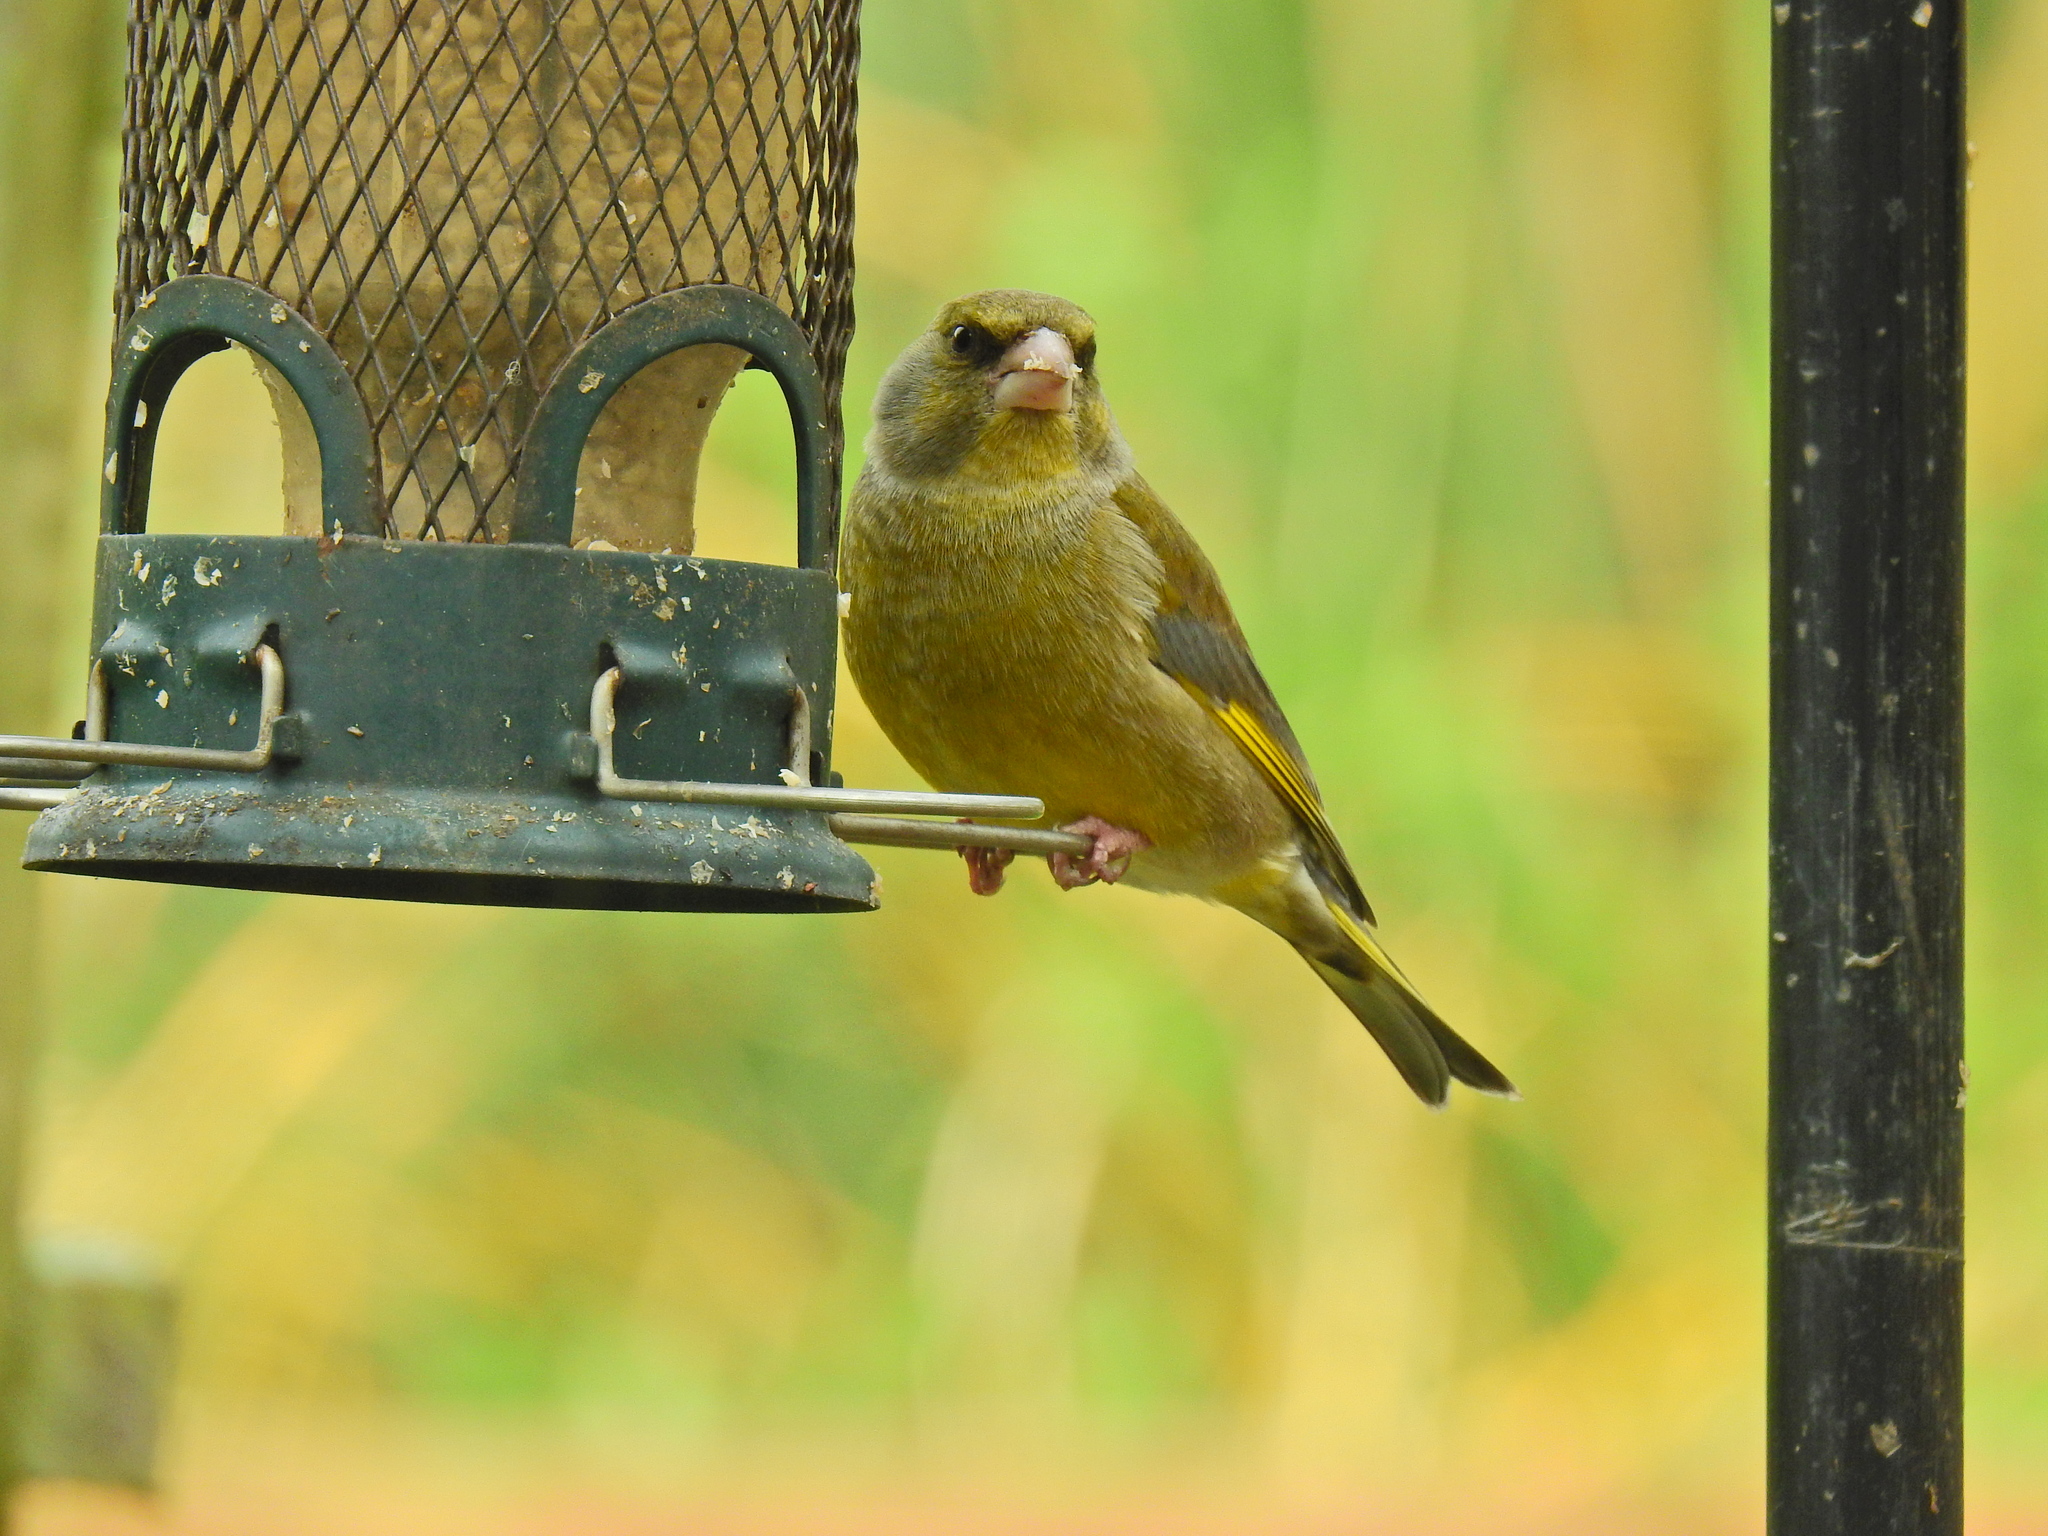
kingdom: Plantae
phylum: Tracheophyta
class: Liliopsida
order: Poales
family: Poaceae
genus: Chloris
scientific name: Chloris chloris
